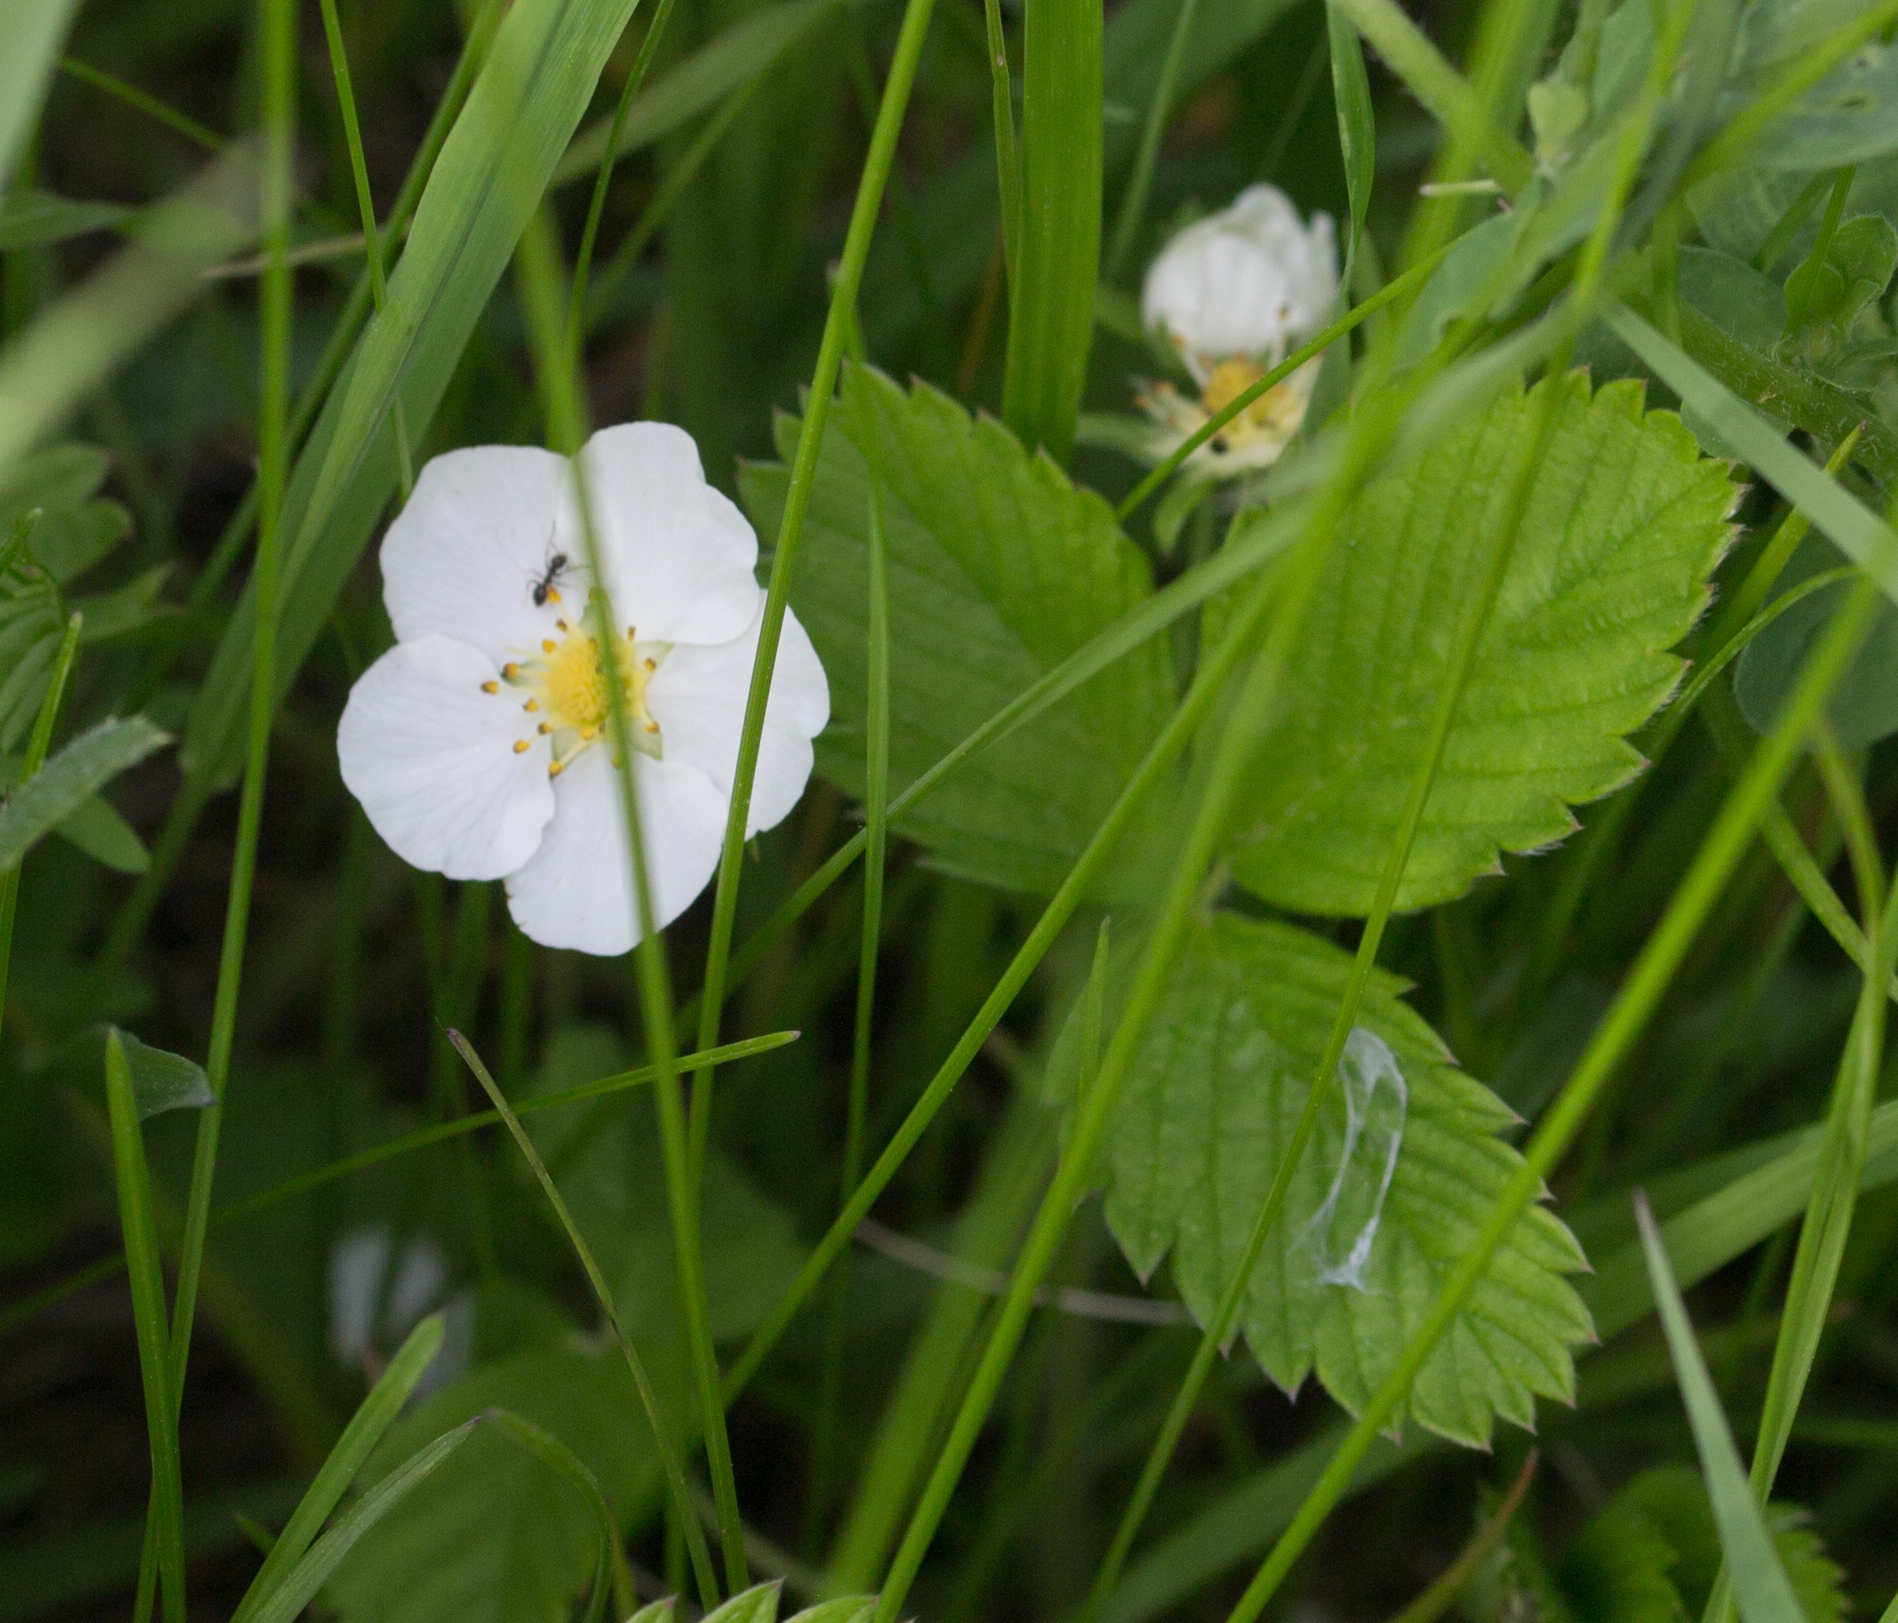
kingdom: Plantae
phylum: Tracheophyta
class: Magnoliopsida
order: Rosales
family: Rosaceae
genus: Fragaria
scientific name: Fragaria viridis
